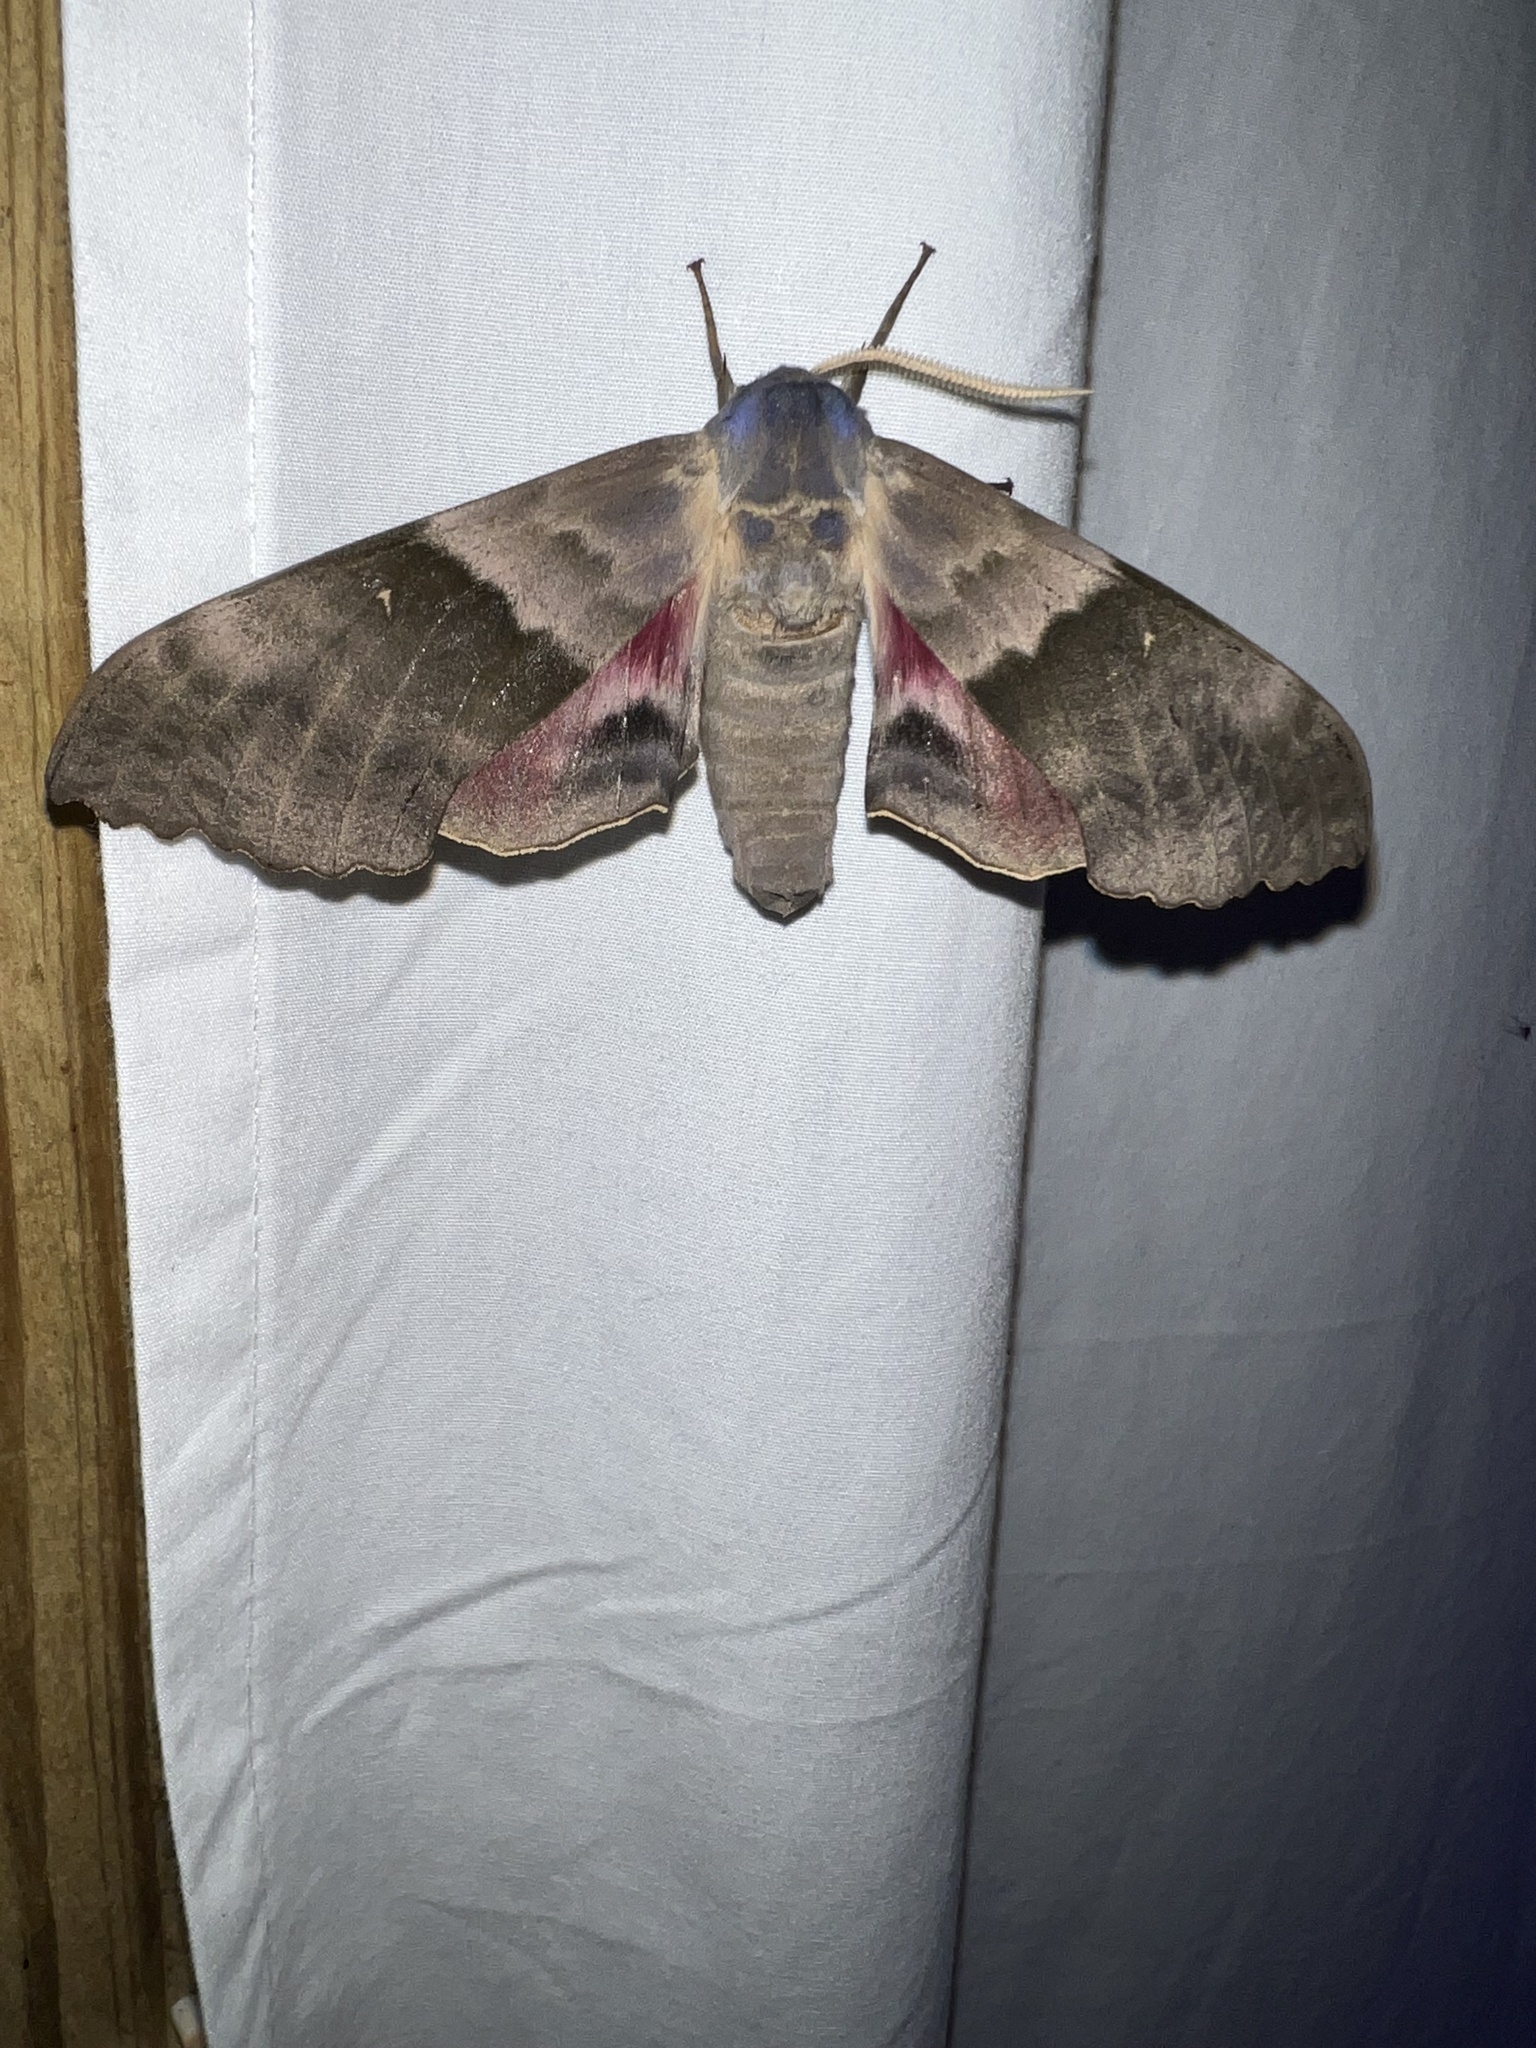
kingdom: Animalia
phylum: Arthropoda
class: Insecta
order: Lepidoptera
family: Sphingidae
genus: Pachysphinx
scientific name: Pachysphinx modesta
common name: Big poplar sphinx
